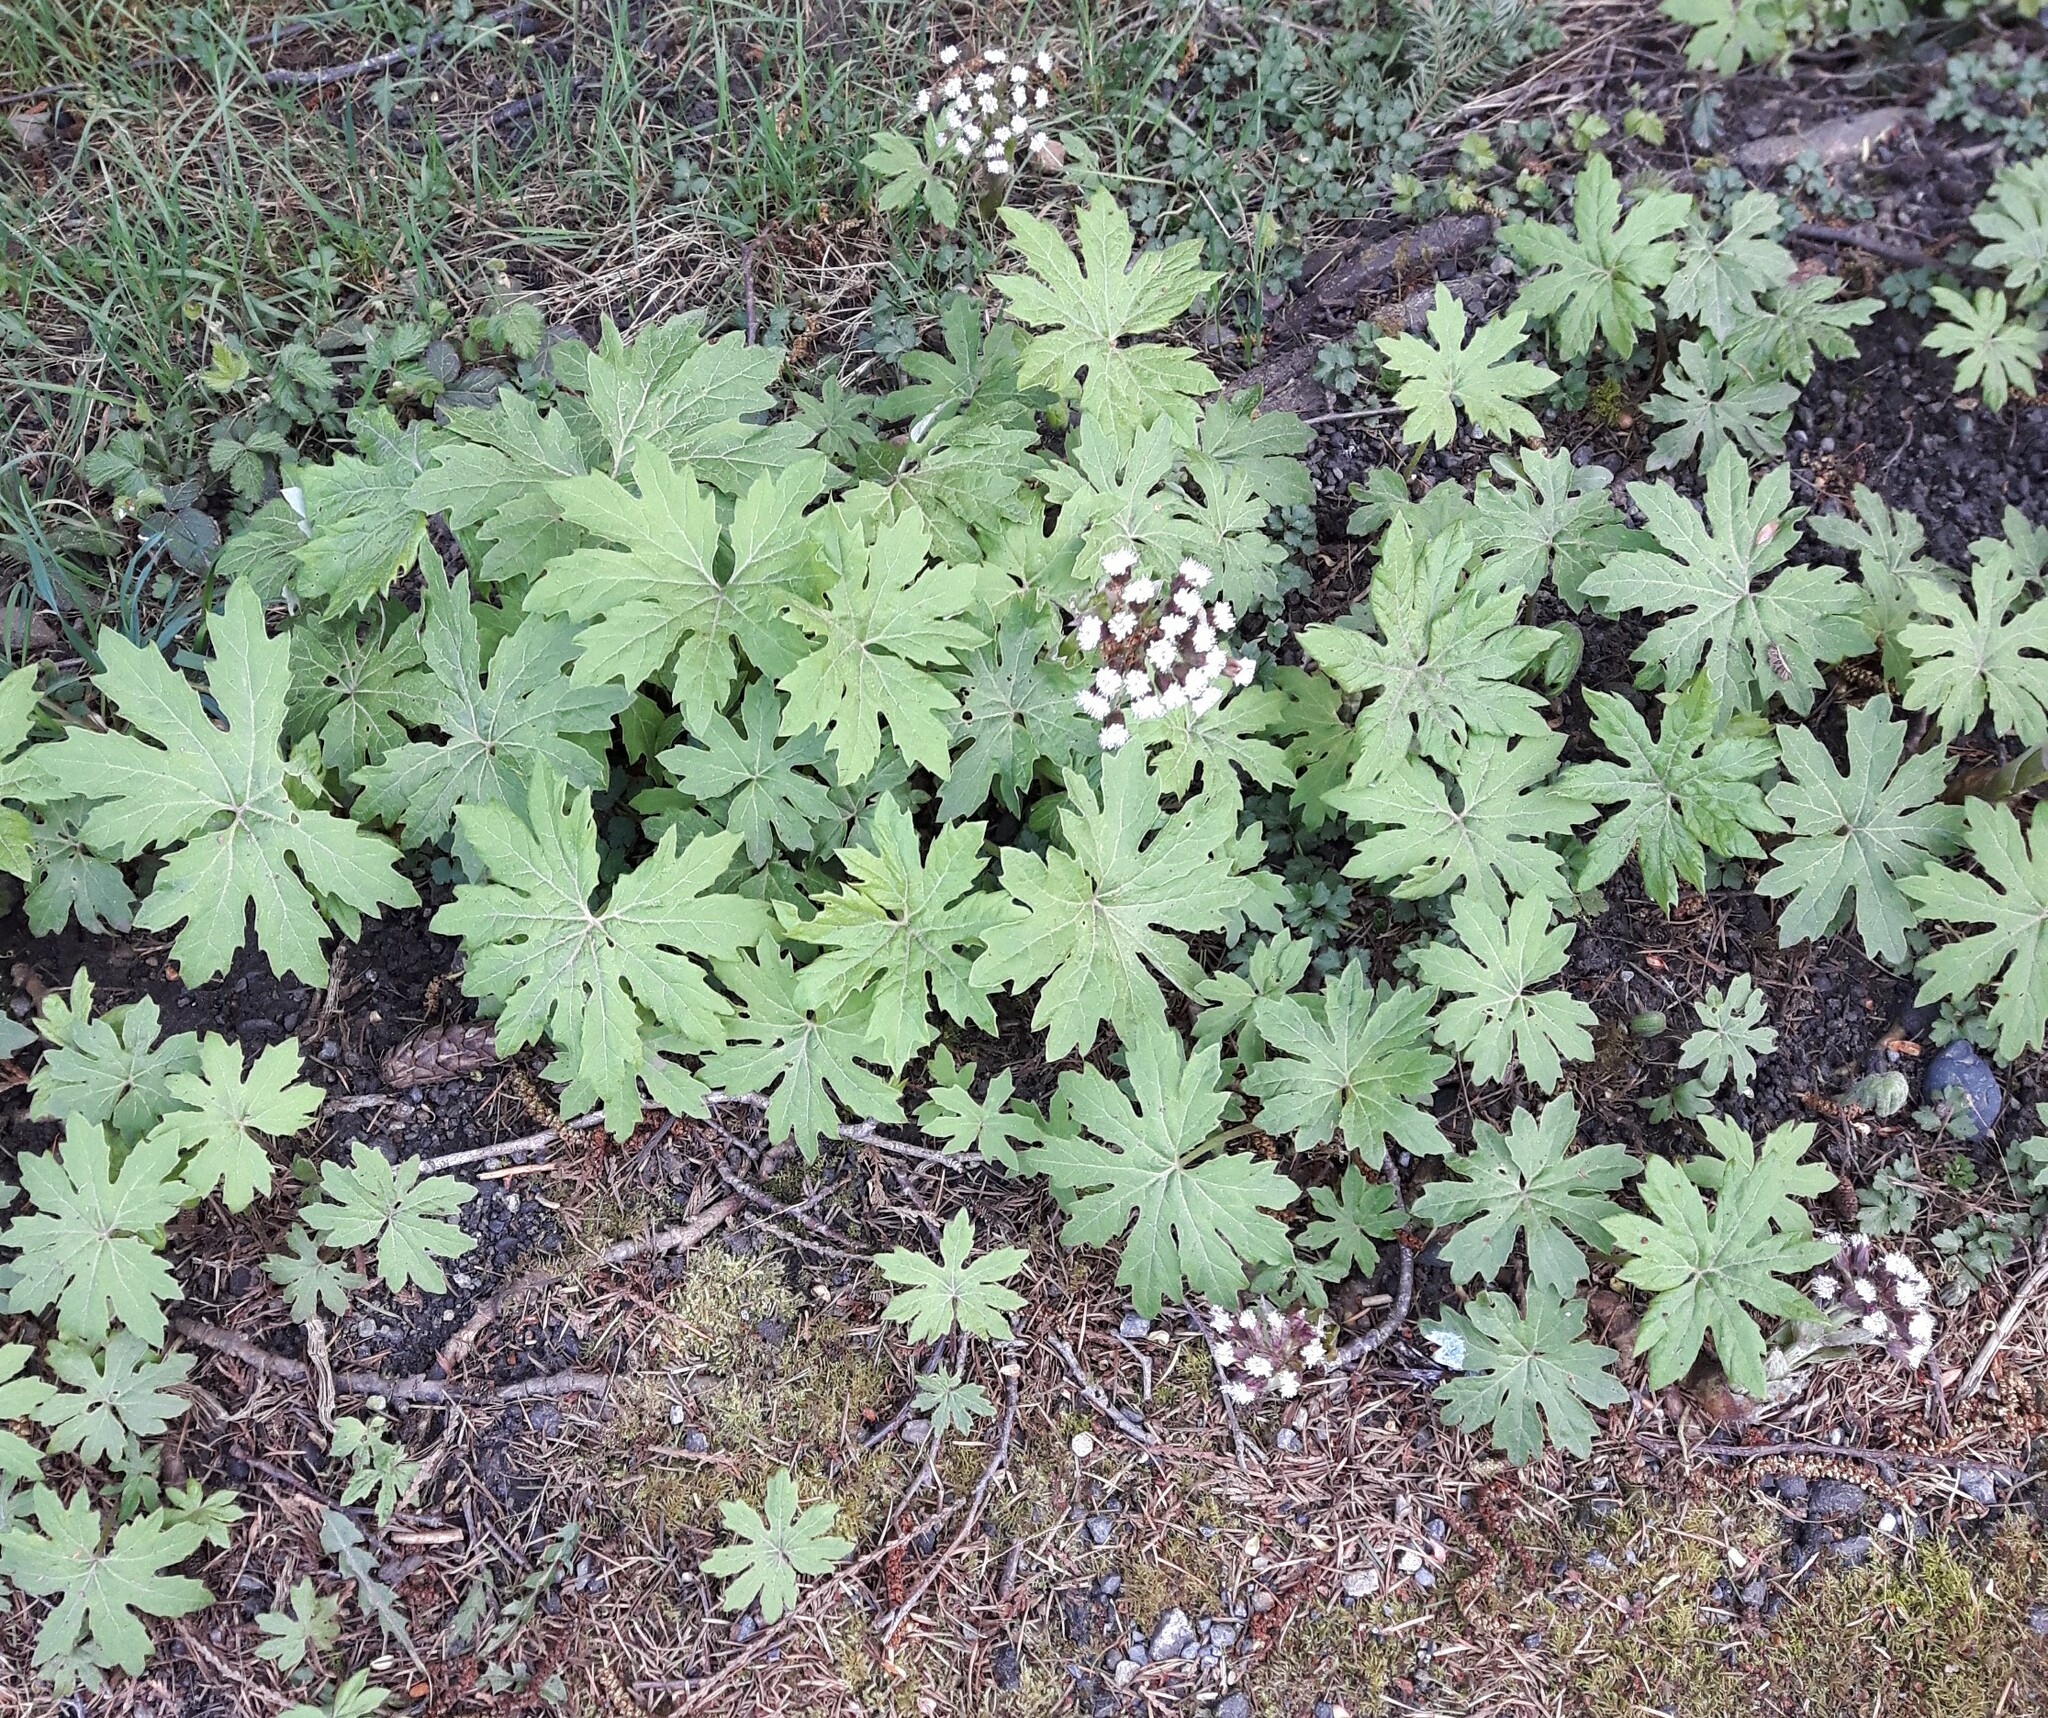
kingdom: Plantae
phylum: Tracheophyta
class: Magnoliopsida
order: Asterales
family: Asteraceae
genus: Petasites
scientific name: Petasites frigidus
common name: Arctic butterbur
